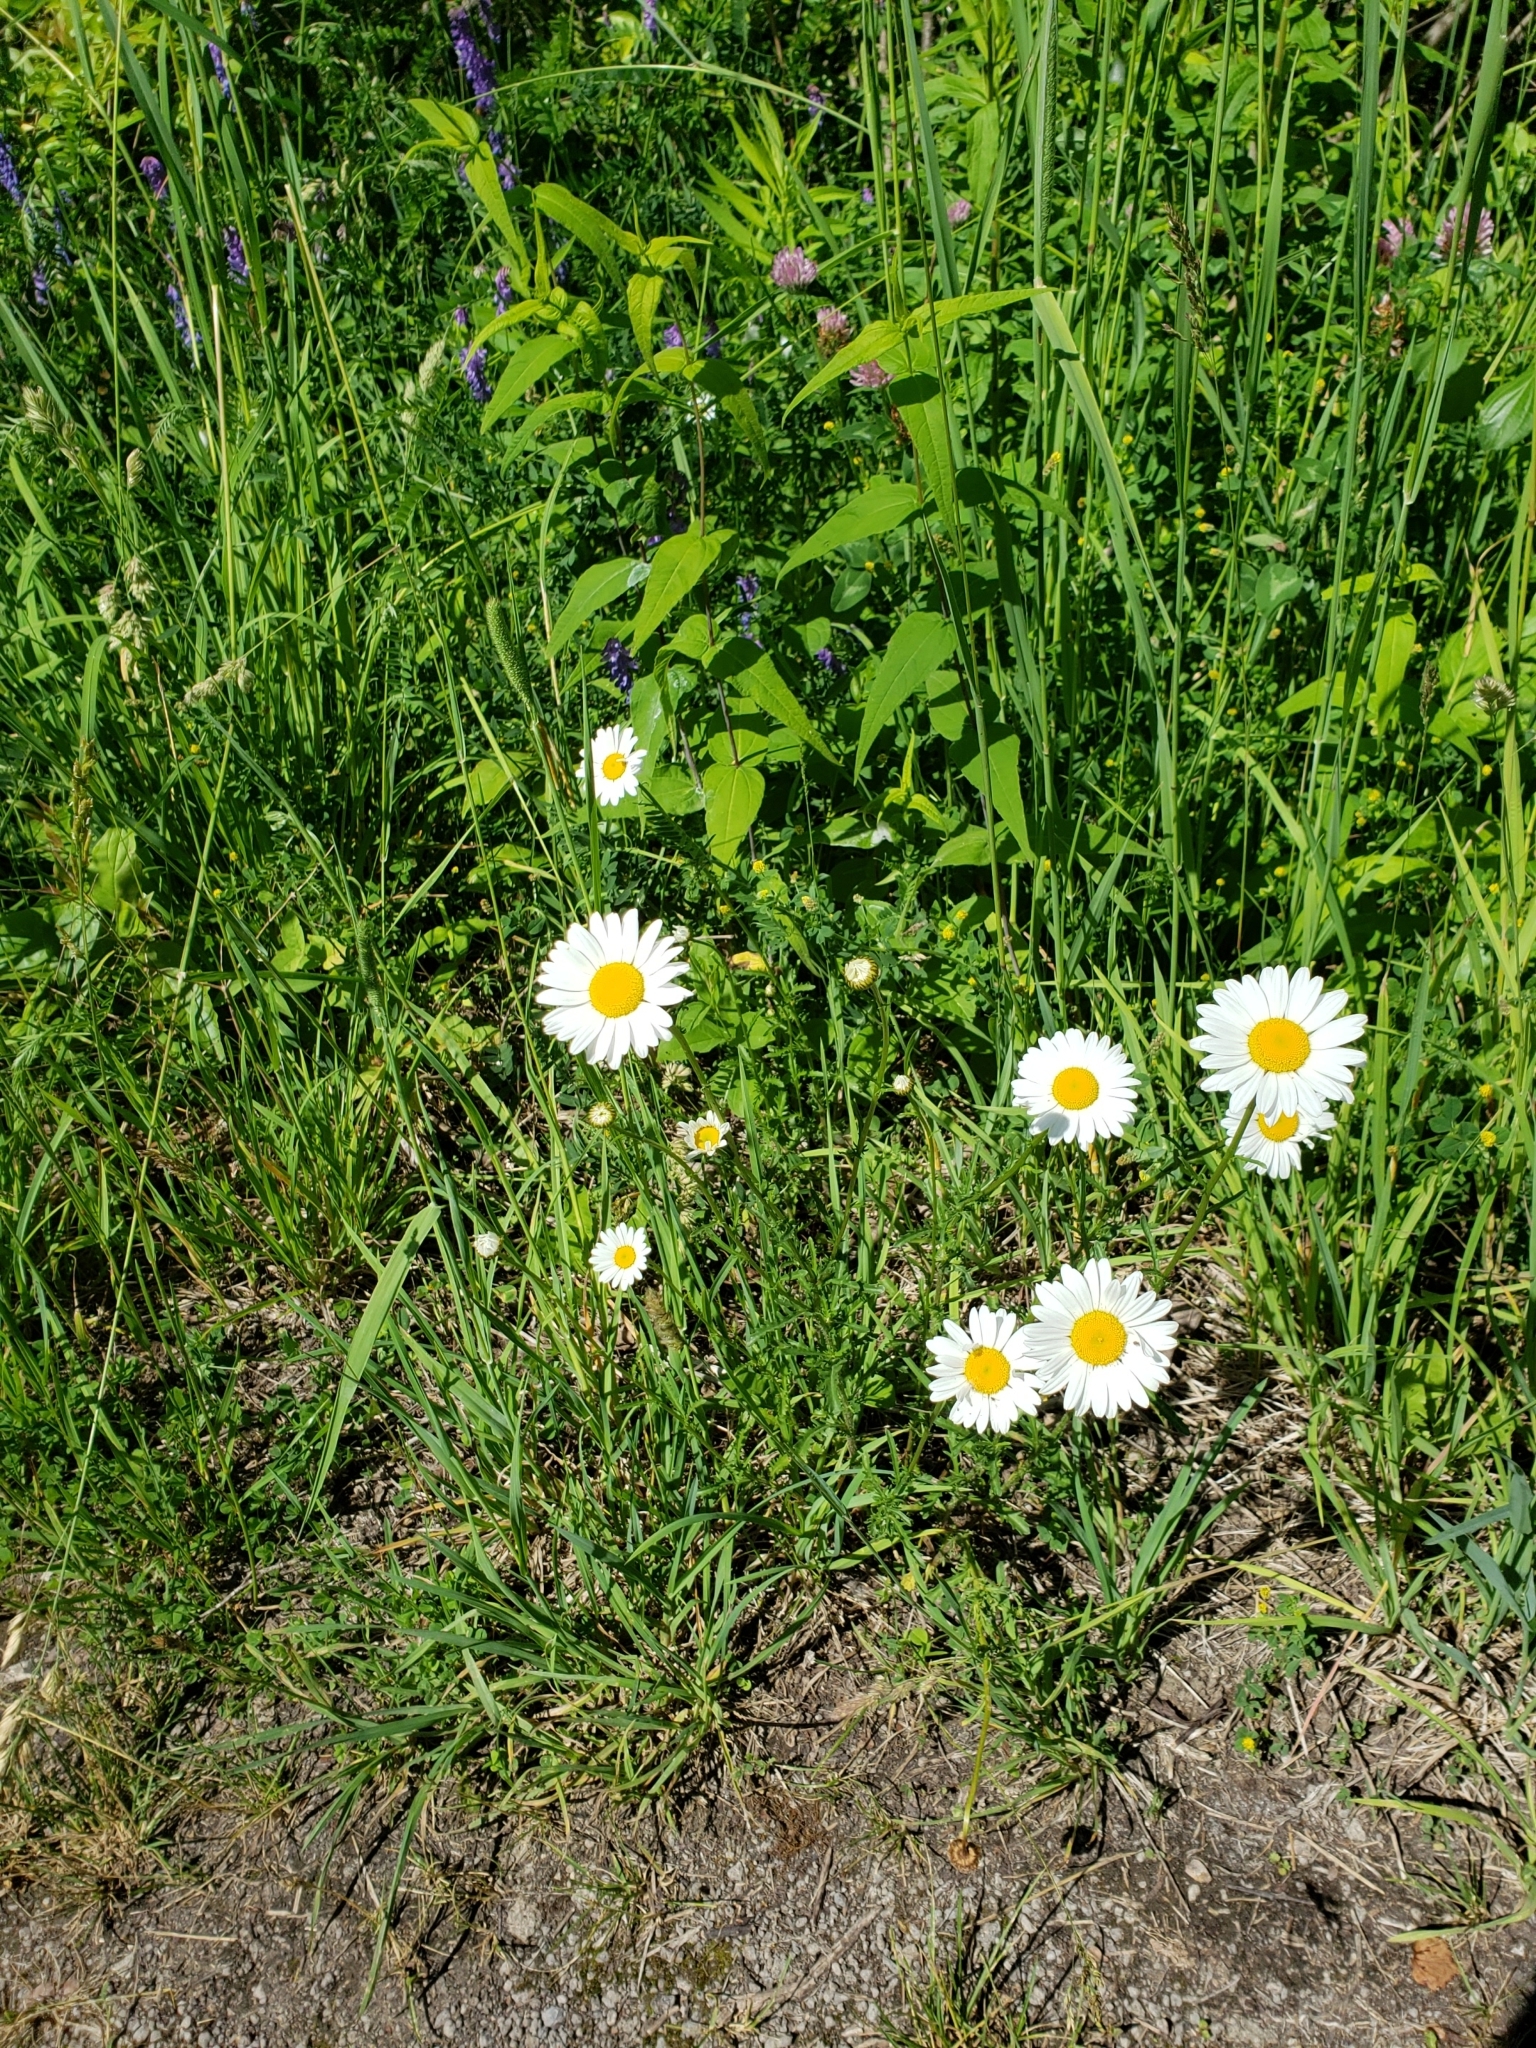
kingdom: Plantae
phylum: Tracheophyta
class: Magnoliopsida
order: Asterales
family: Asteraceae
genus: Leucanthemum
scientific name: Leucanthemum vulgare
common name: Oxeye daisy
